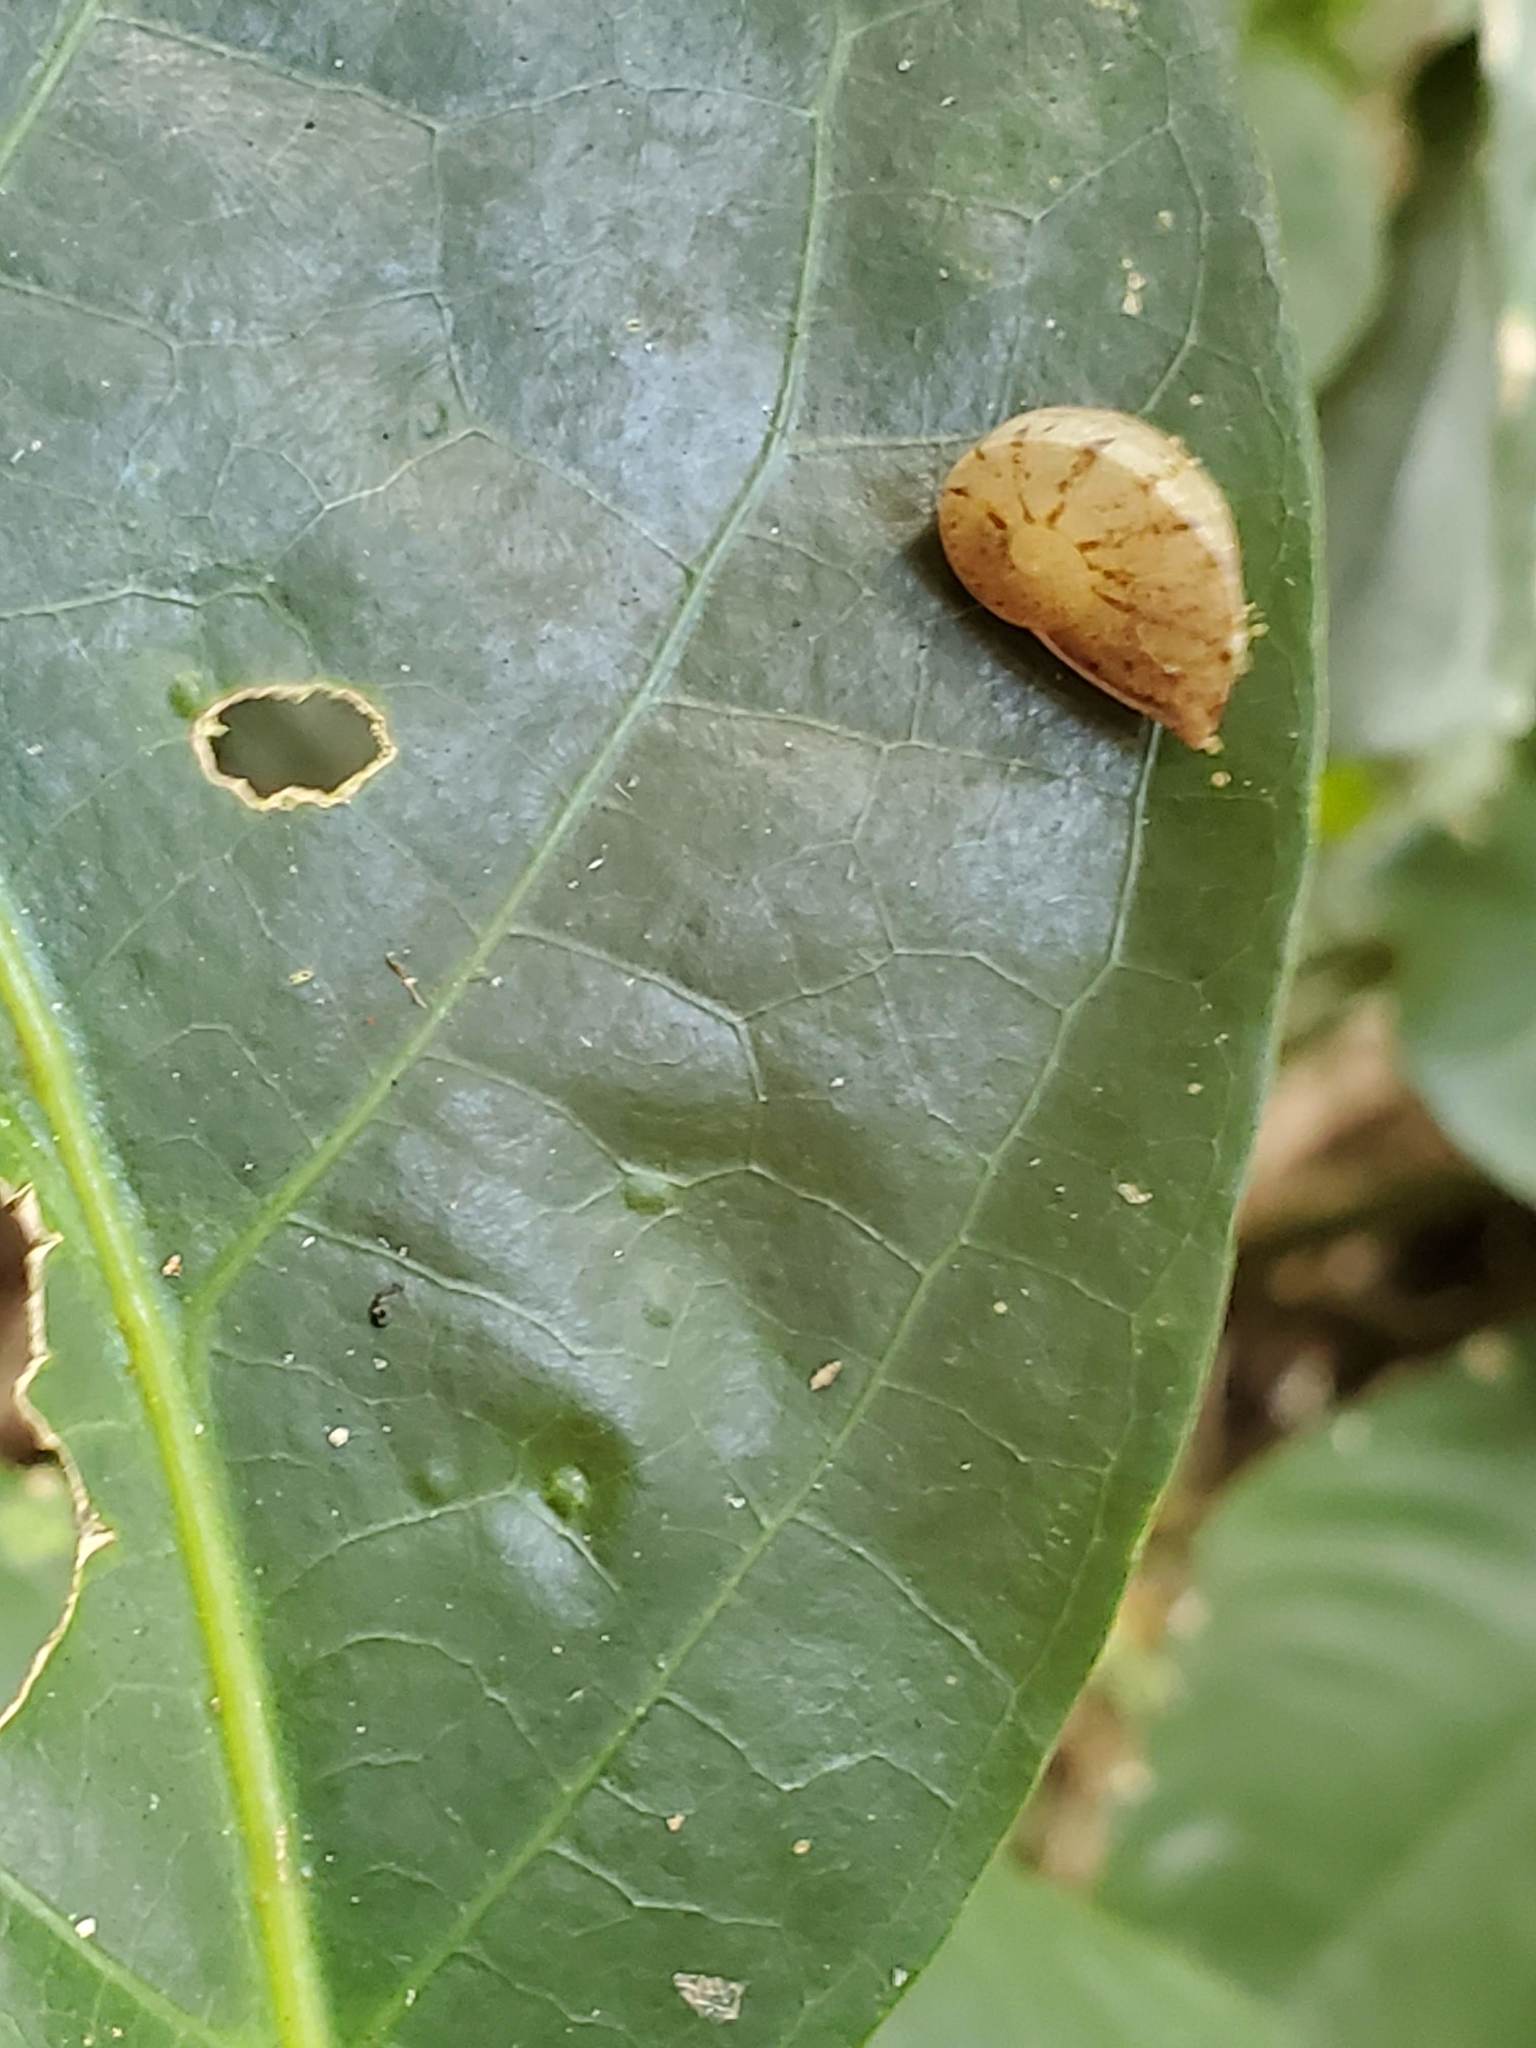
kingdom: Animalia
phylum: Mollusca
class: Gastropoda
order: Stylommatophora
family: Sagdidae
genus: Parthena
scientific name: Parthena acutangula
